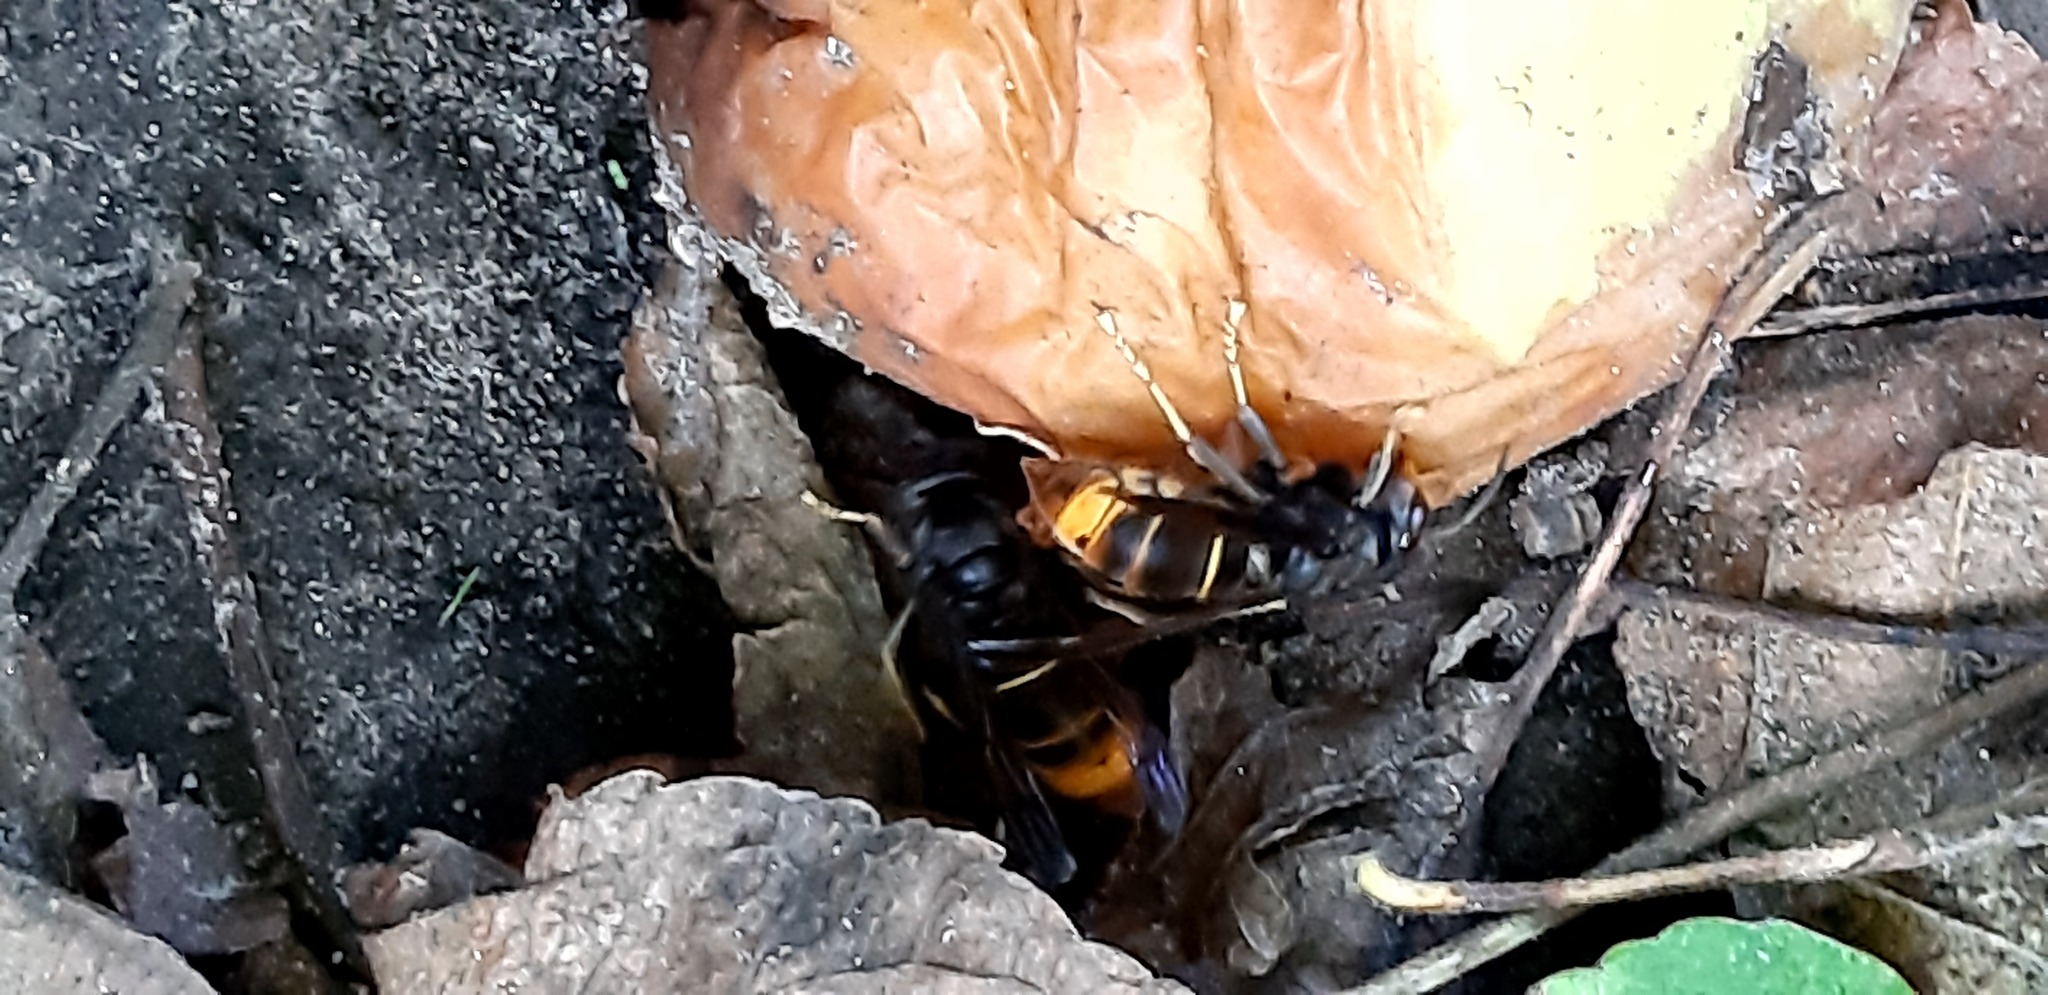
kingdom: Animalia
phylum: Arthropoda
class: Insecta
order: Hymenoptera
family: Vespidae
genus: Vespa
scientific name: Vespa velutina
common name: Asian hornet
